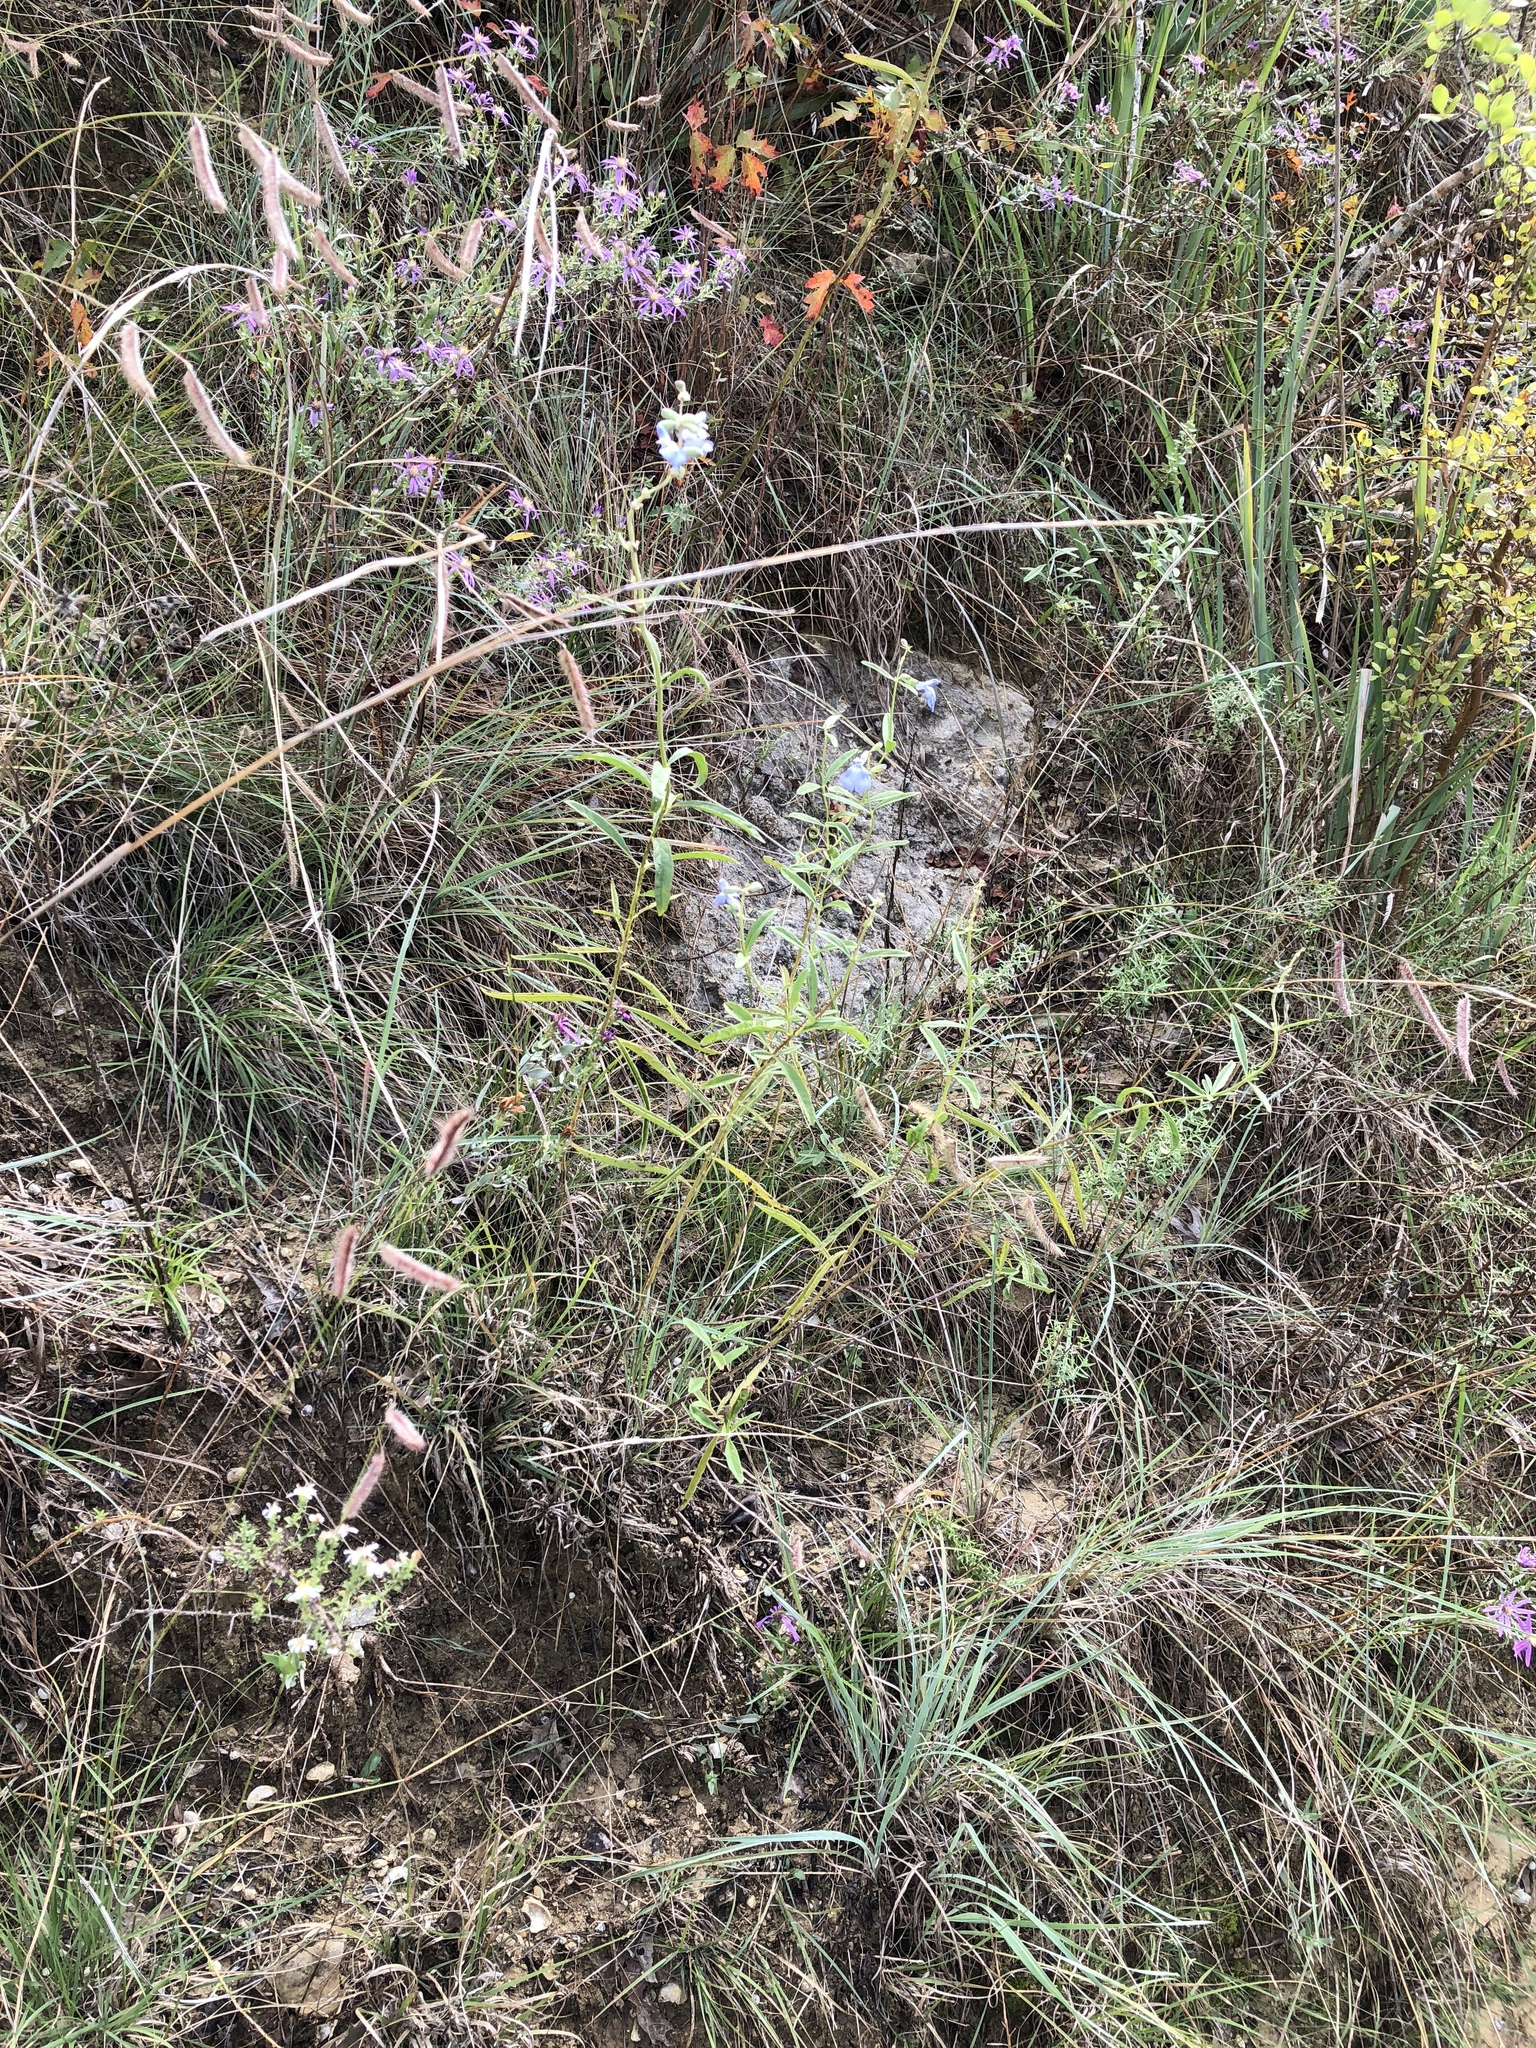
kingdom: Plantae
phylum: Tracheophyta
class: Magnoliopsida
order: Lamiales
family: Lamiaceae
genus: Salvia
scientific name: Salvia azurea
